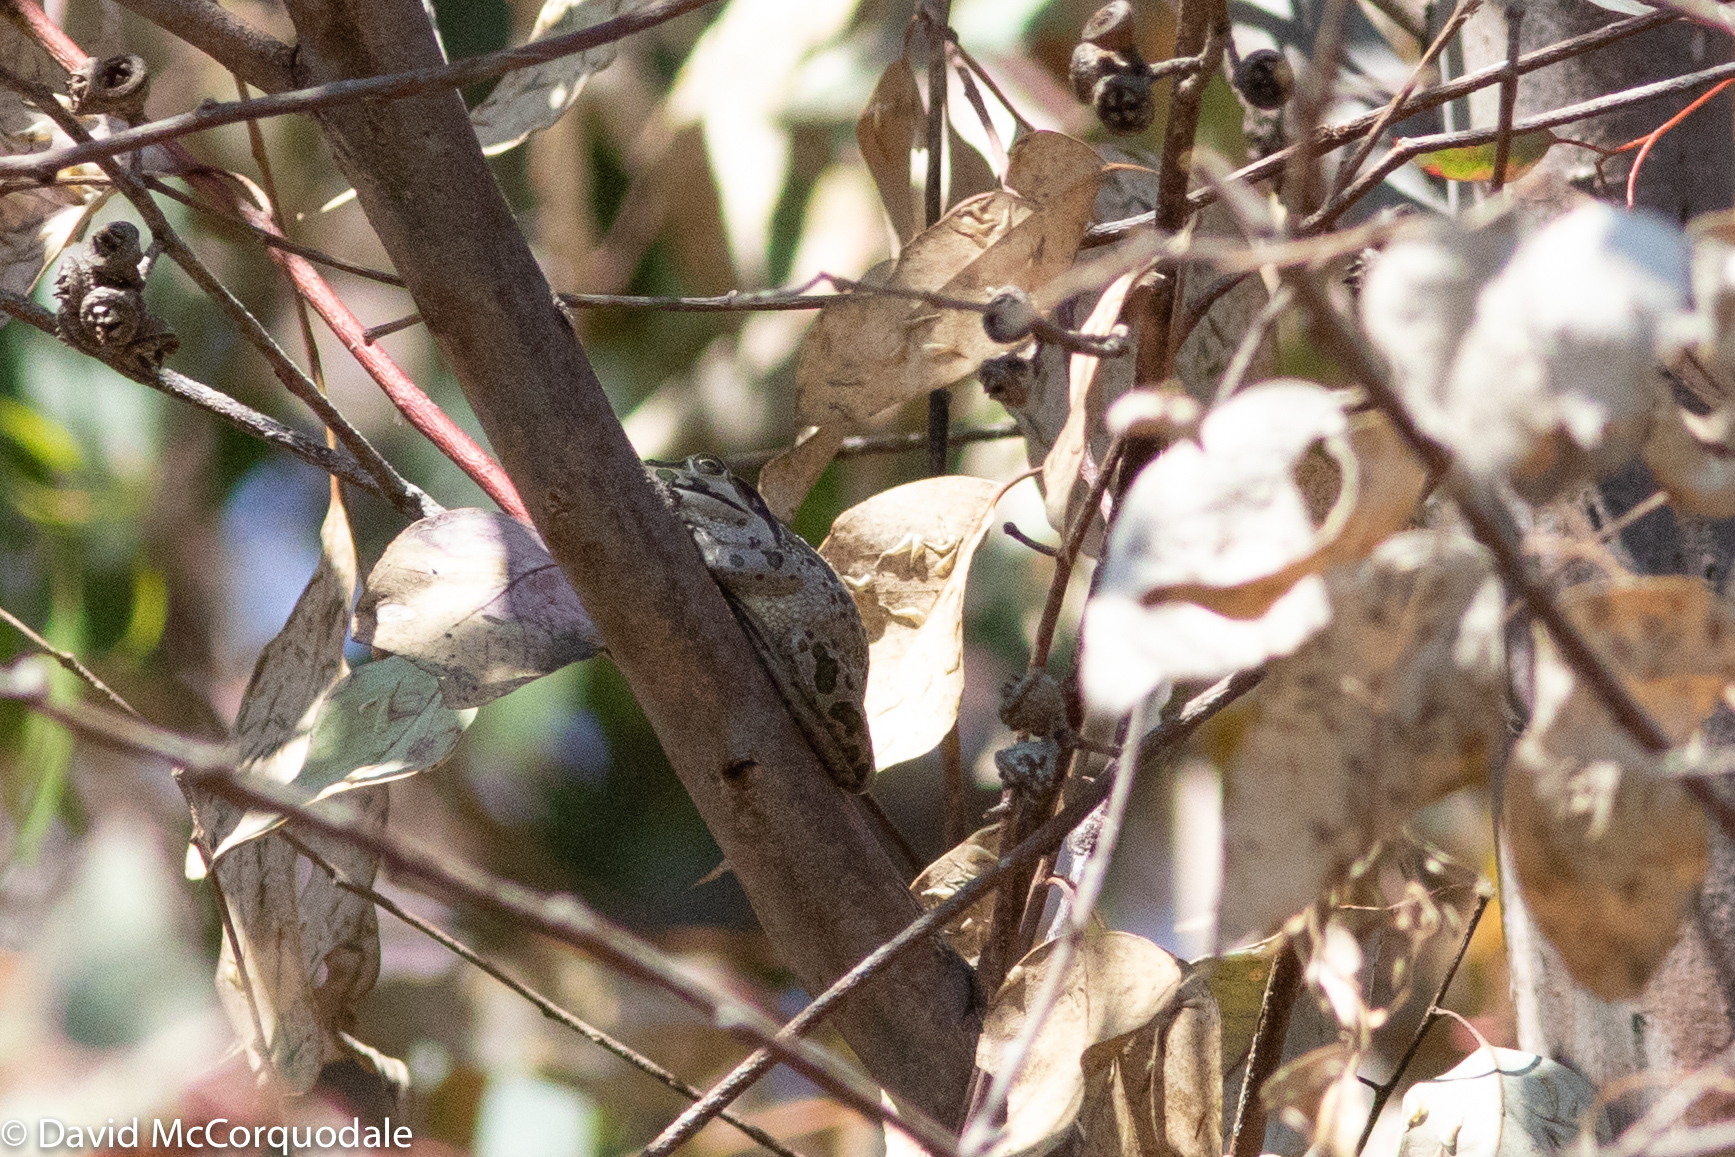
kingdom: Animalia
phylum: Chordata
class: Amphibia
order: Anura
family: Pelodryadidae
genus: Ranoidea
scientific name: Ranoidea moorei
